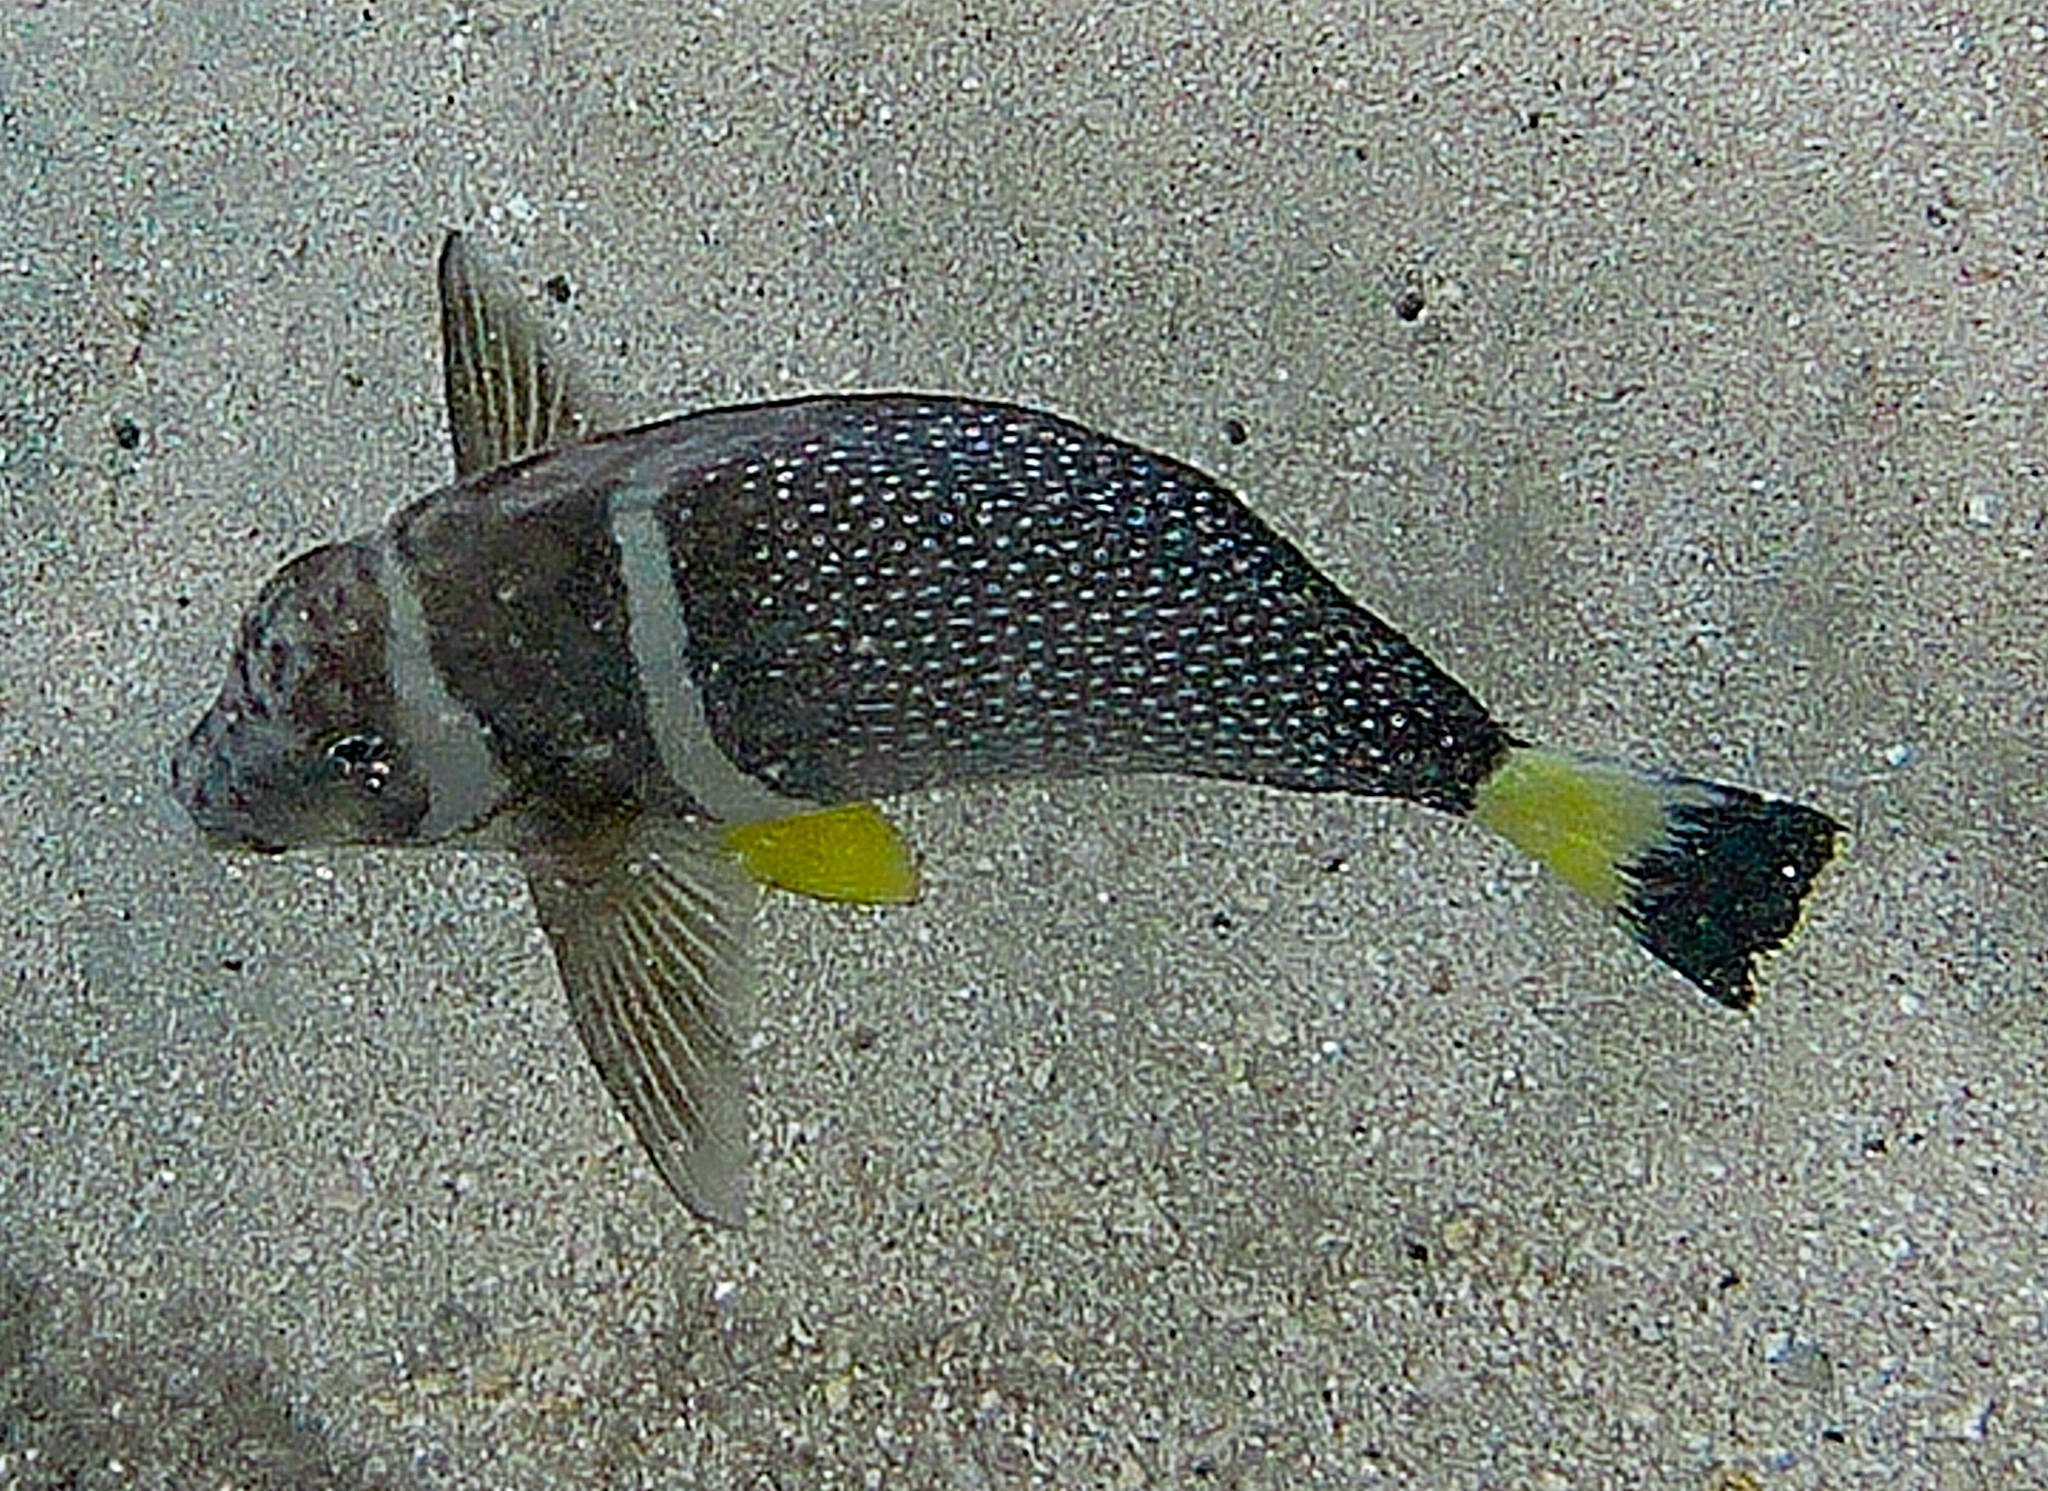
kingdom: Animalia
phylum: Chordata
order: Perciformes
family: Acanthuridae
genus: Acanthurus
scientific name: Acanthurus guttatus
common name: Whitespotted surgeonfish
